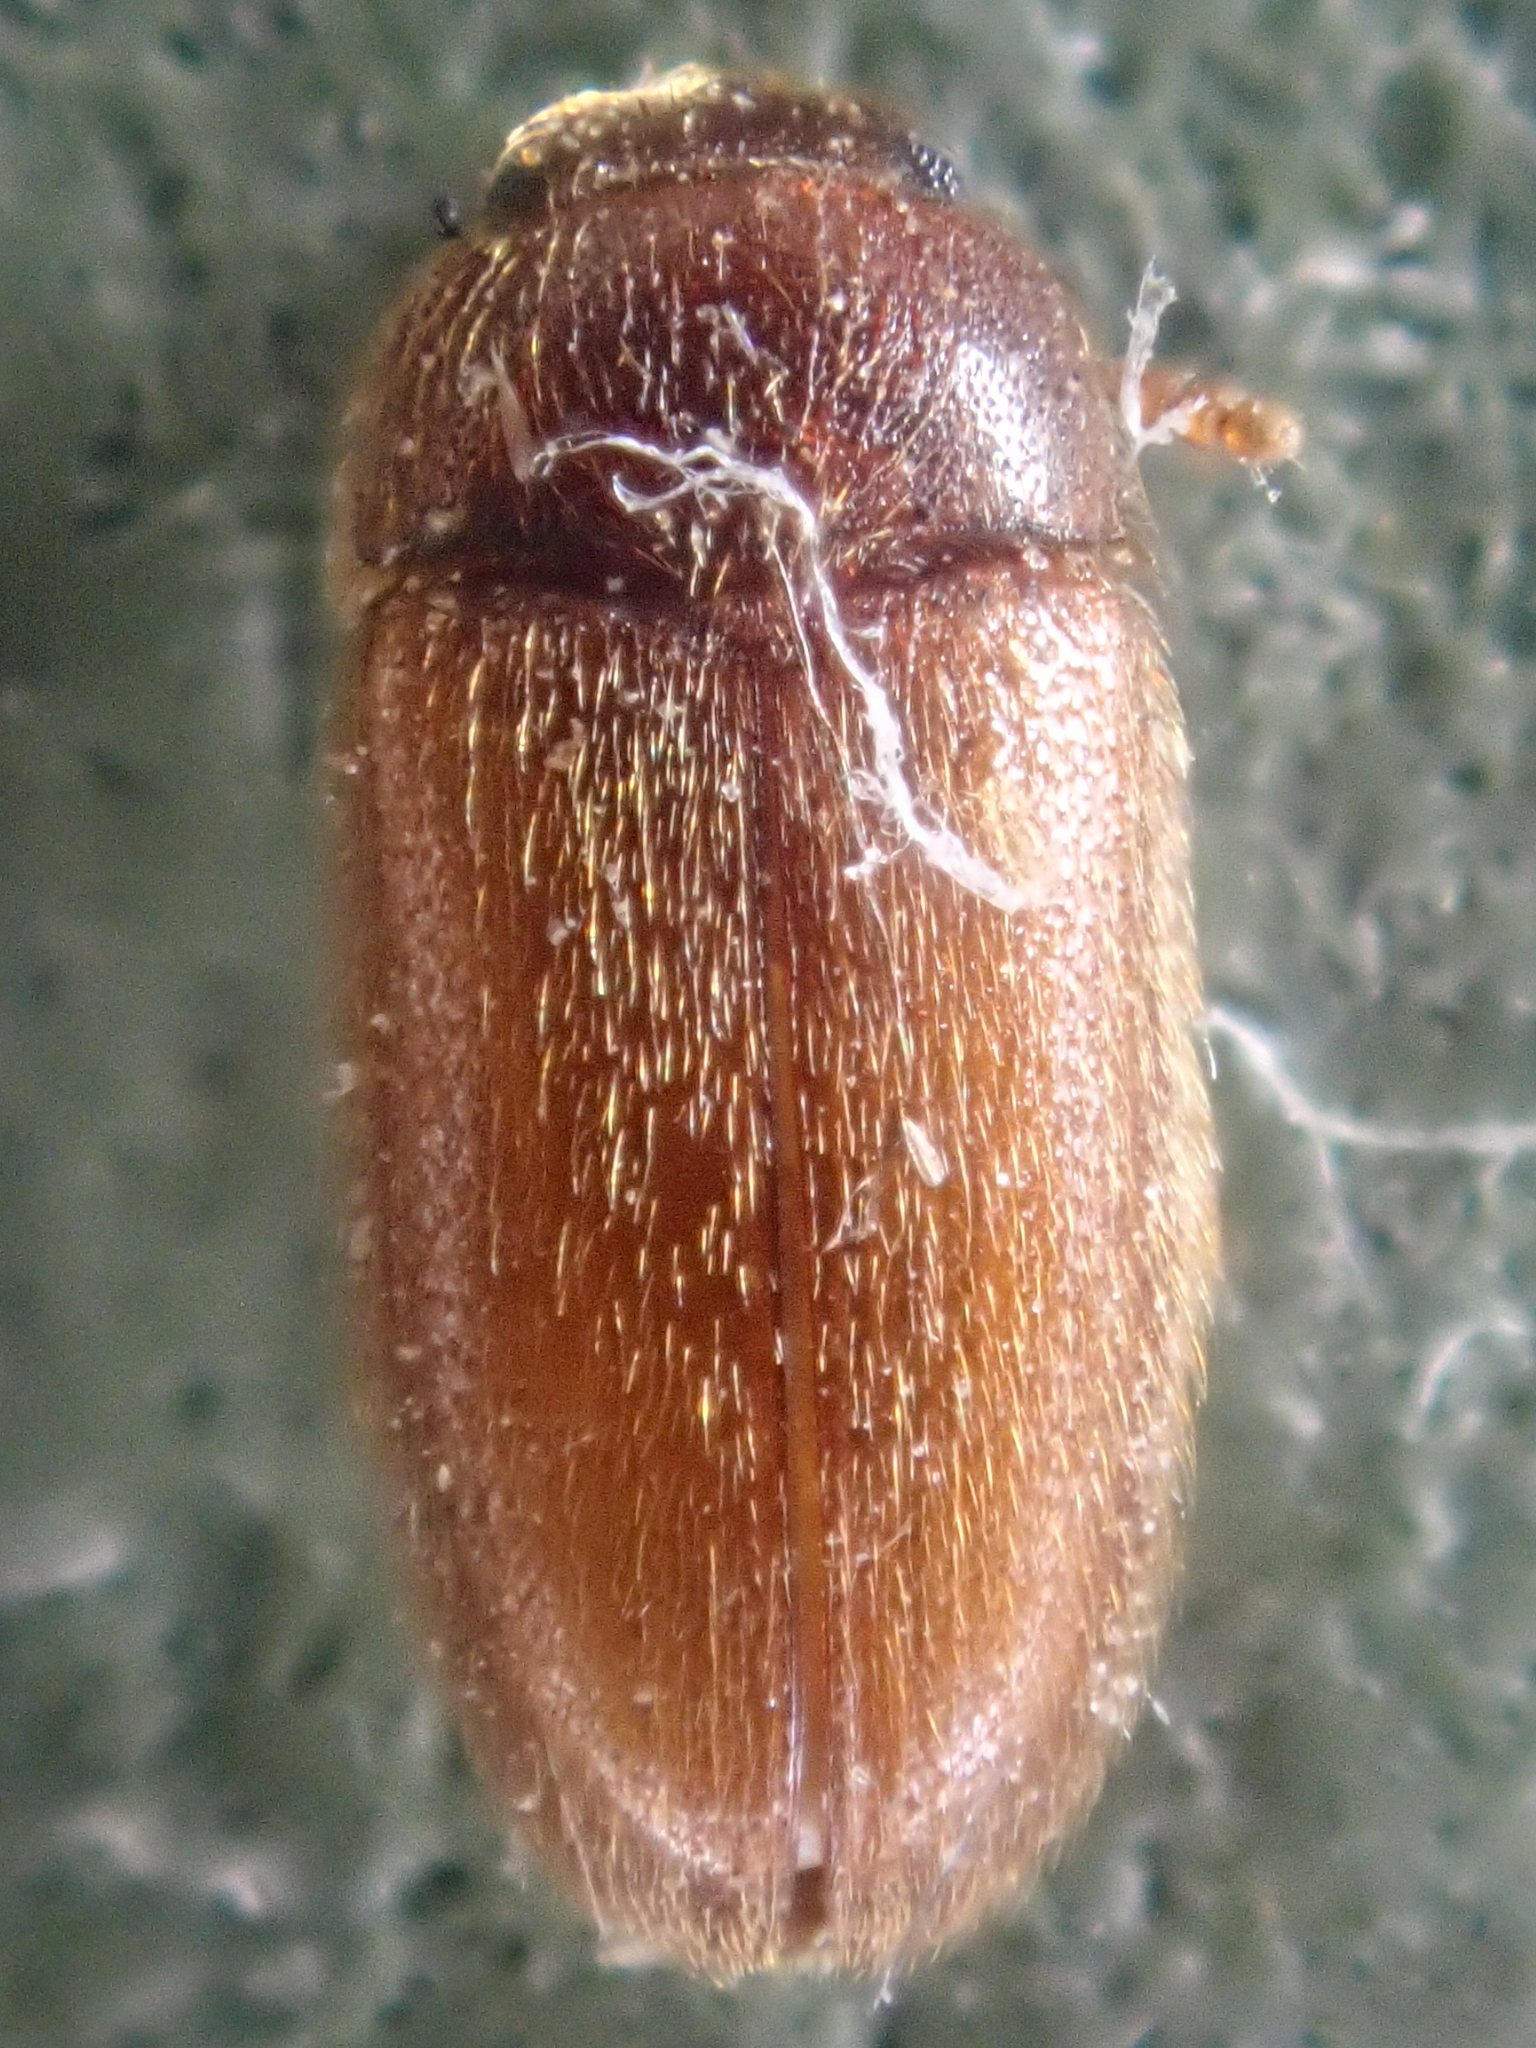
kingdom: Animalia
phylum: Arthropoda
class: Insecta
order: Coleoptera
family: Mycetophagidae
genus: Typhaea
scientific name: Typhaea stercorea
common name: Hairy fungus beetle
